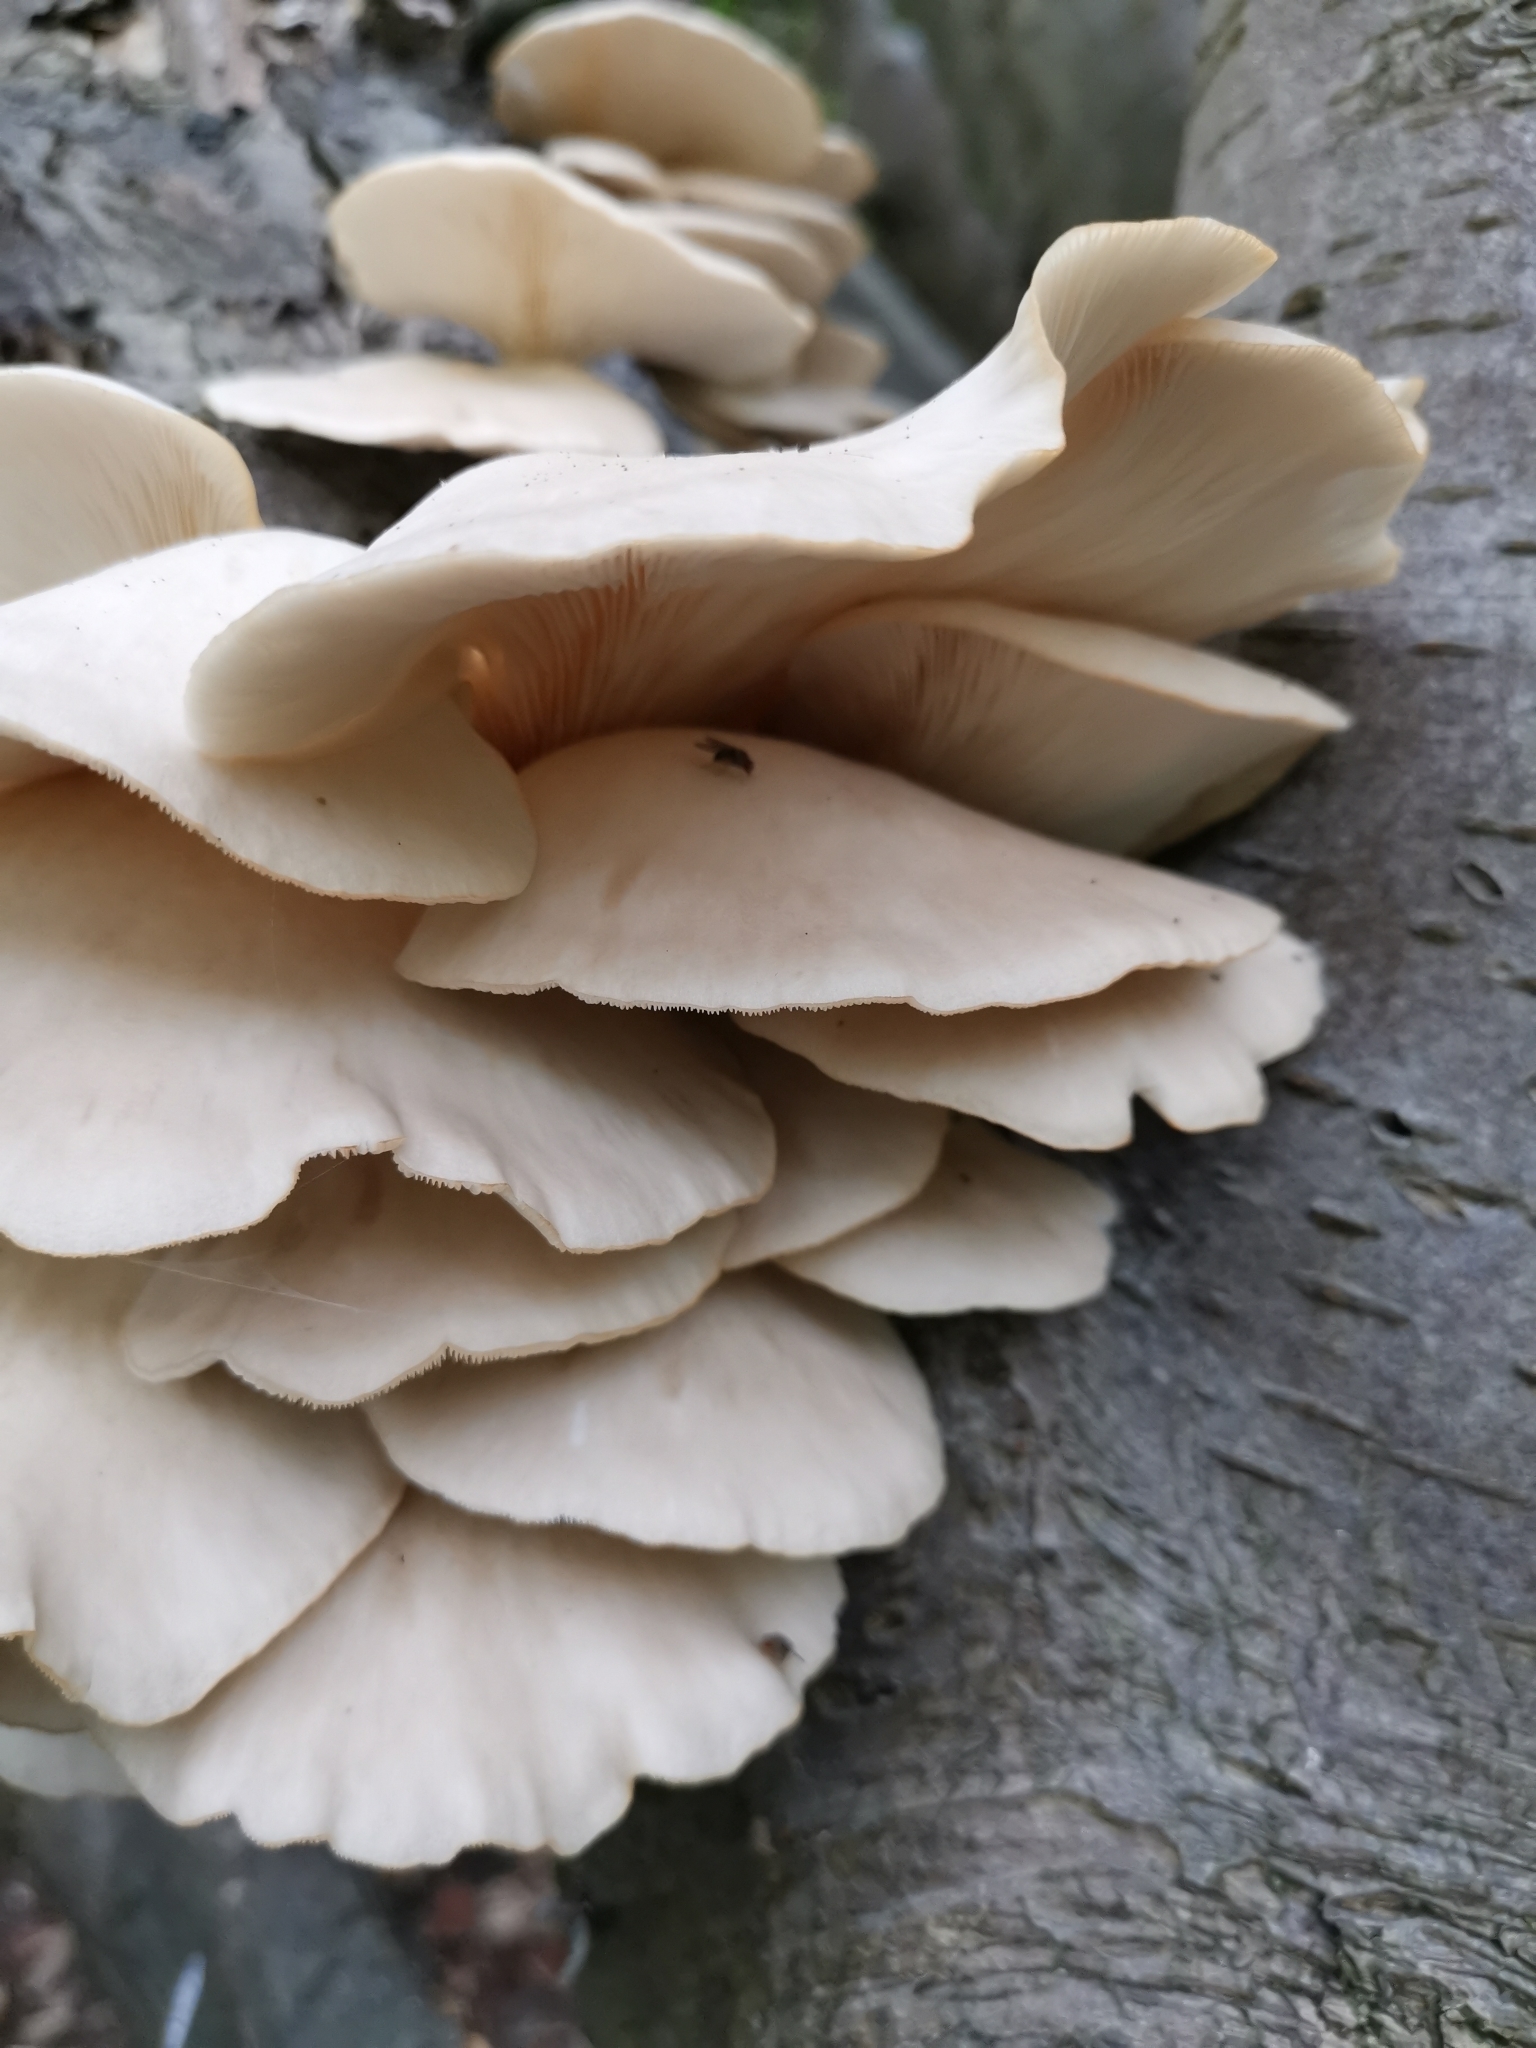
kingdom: Fungi
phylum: Basidiomycota
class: Agaricomycetes
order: Agaricales
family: Pleurotaceae
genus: Pleurotus
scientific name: Pleurotus pulmonarius
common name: Pale oyster
